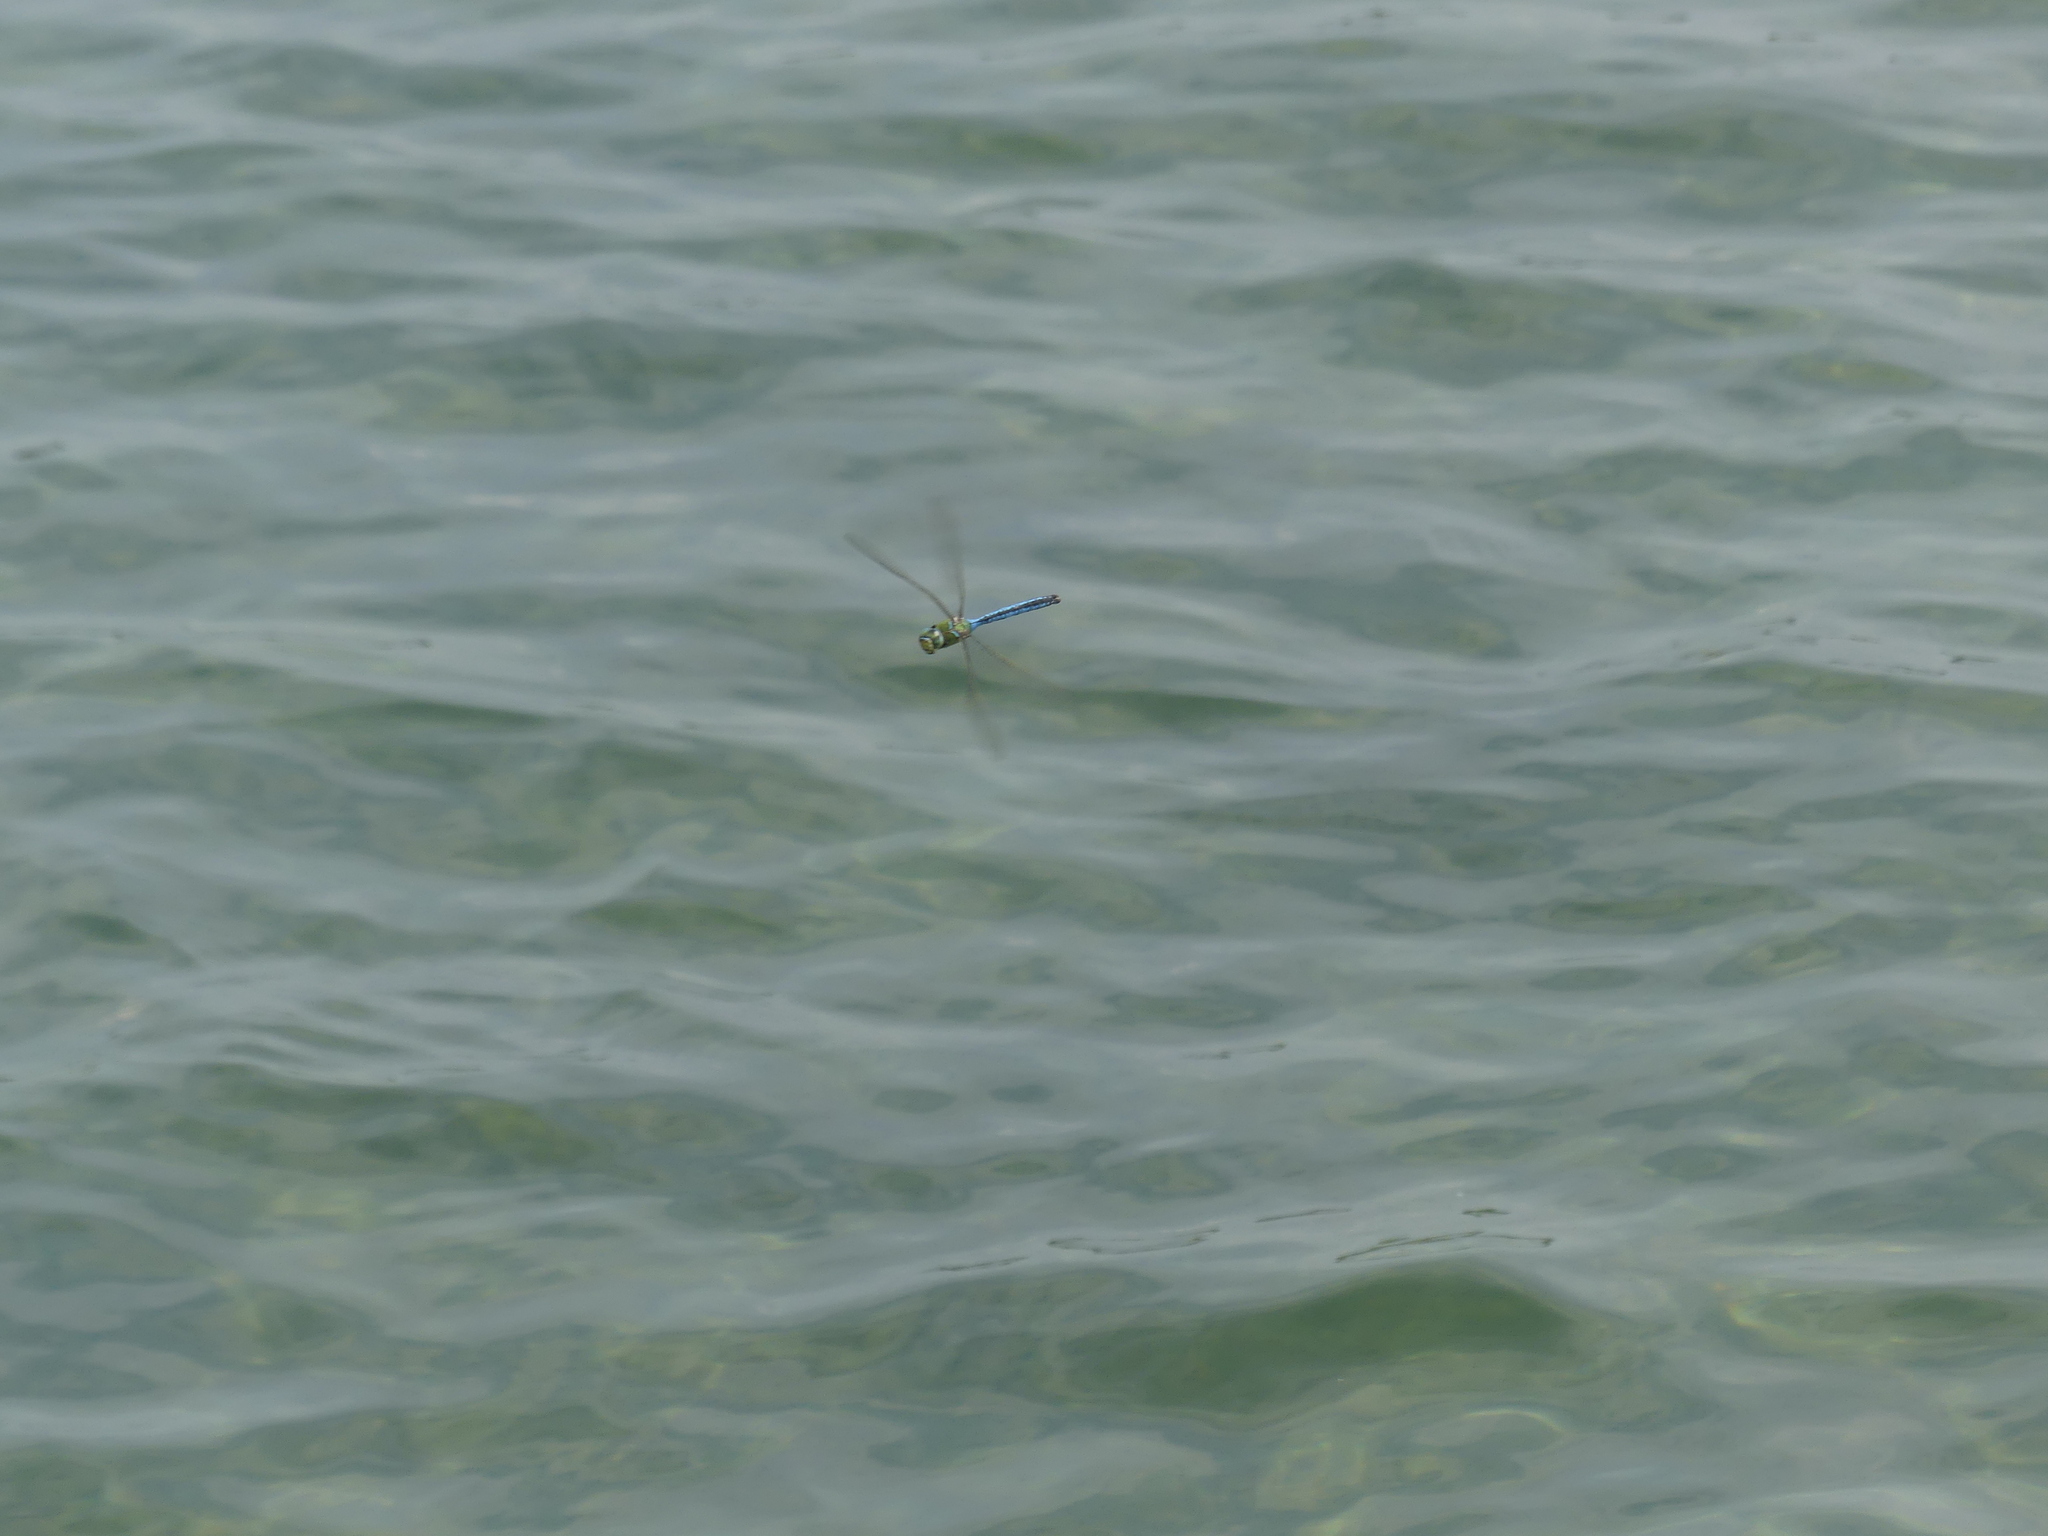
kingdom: Animalia
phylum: Arthropoda
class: Insecta
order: Odonata
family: Aeshnidae
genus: Anax
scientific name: Anax imperator
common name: Emperor dragonfly
